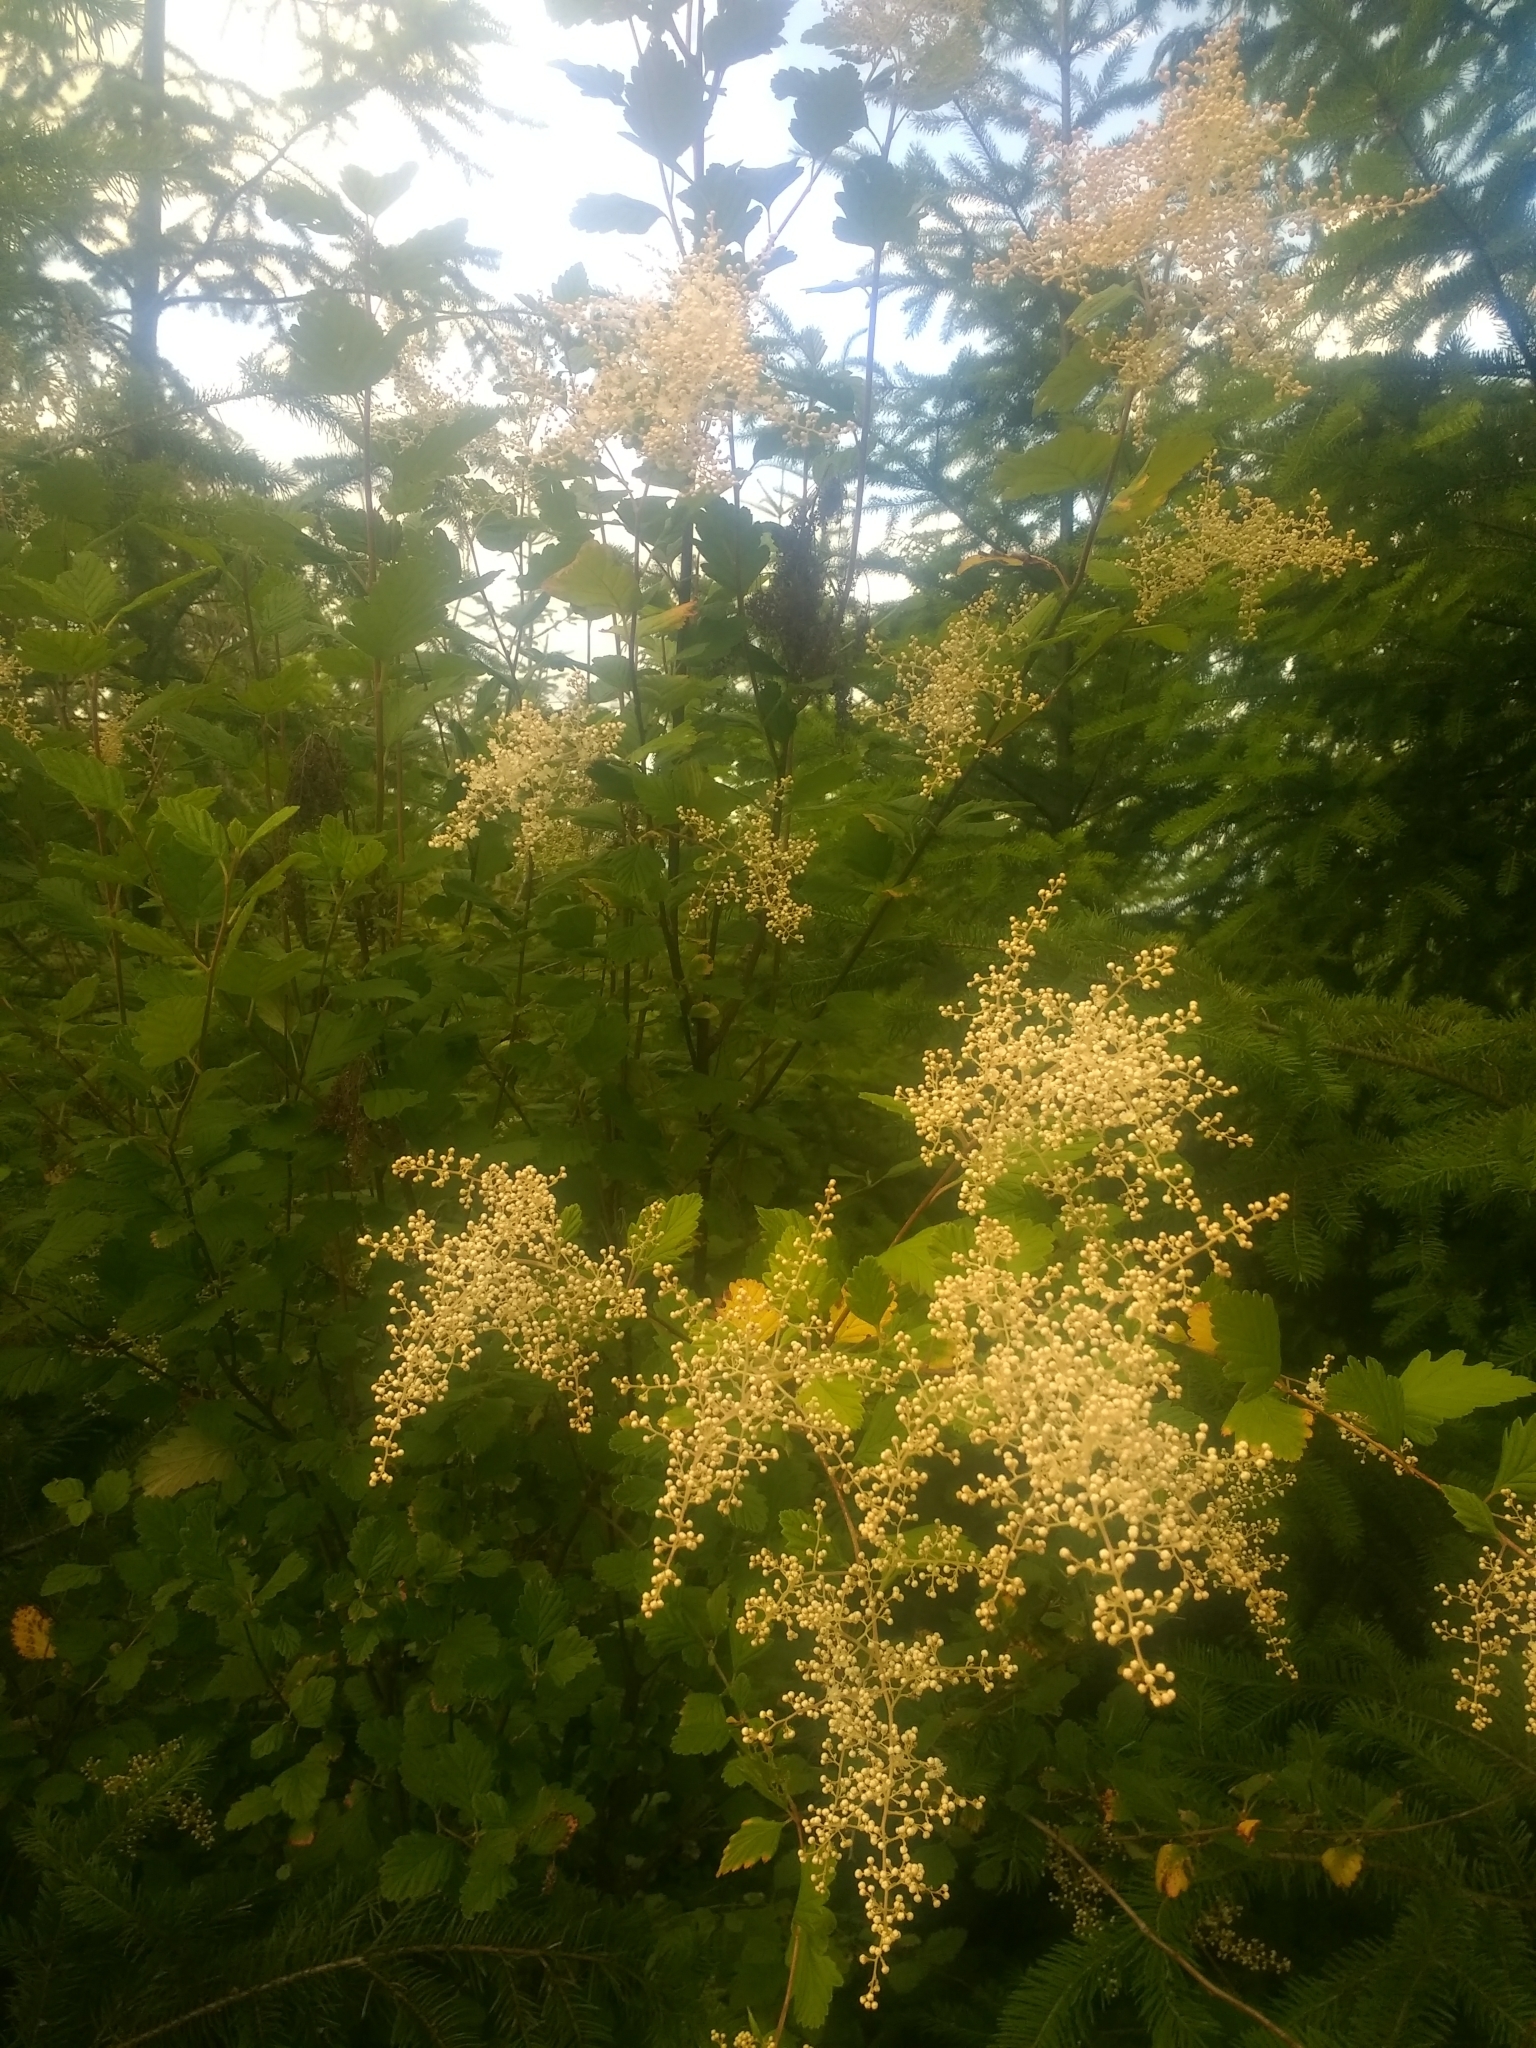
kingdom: Plantae
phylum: Tracheophyta
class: Magnoliopsida
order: Rosales
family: Rosaceae
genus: Holodiscus
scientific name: Holodiscus discolor
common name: Oceanspray
